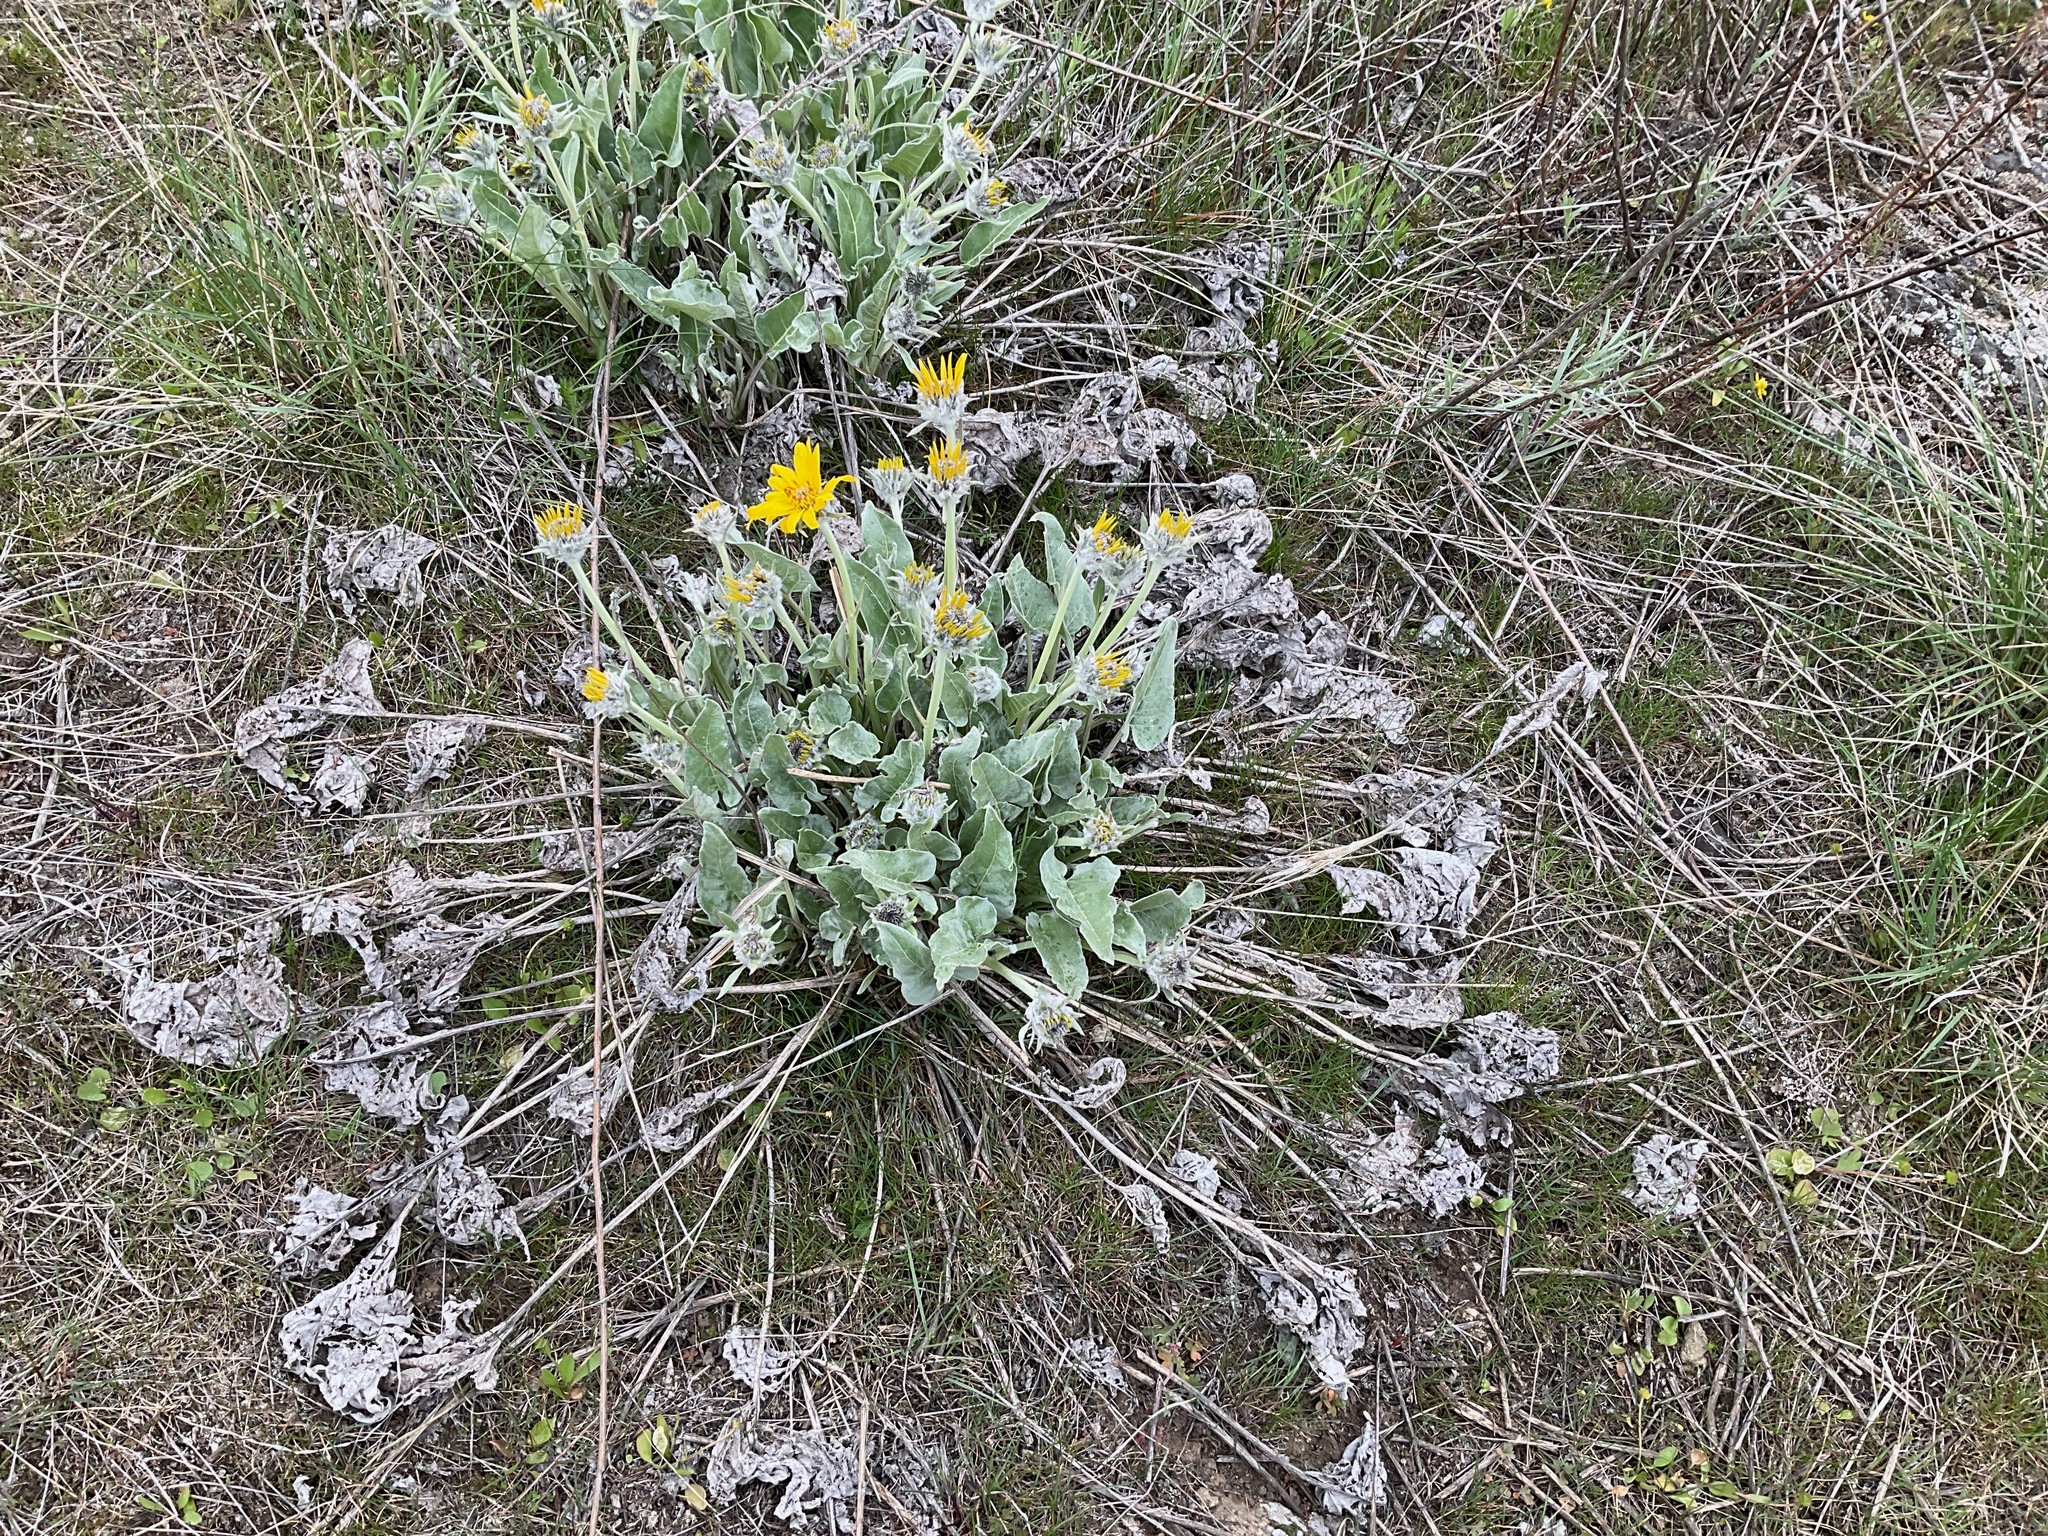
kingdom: Plantae
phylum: Tracheophyta
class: Magnoliopsida
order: Asterales
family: Asteraceae
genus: Wyethia
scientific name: Wyethia sagittata
